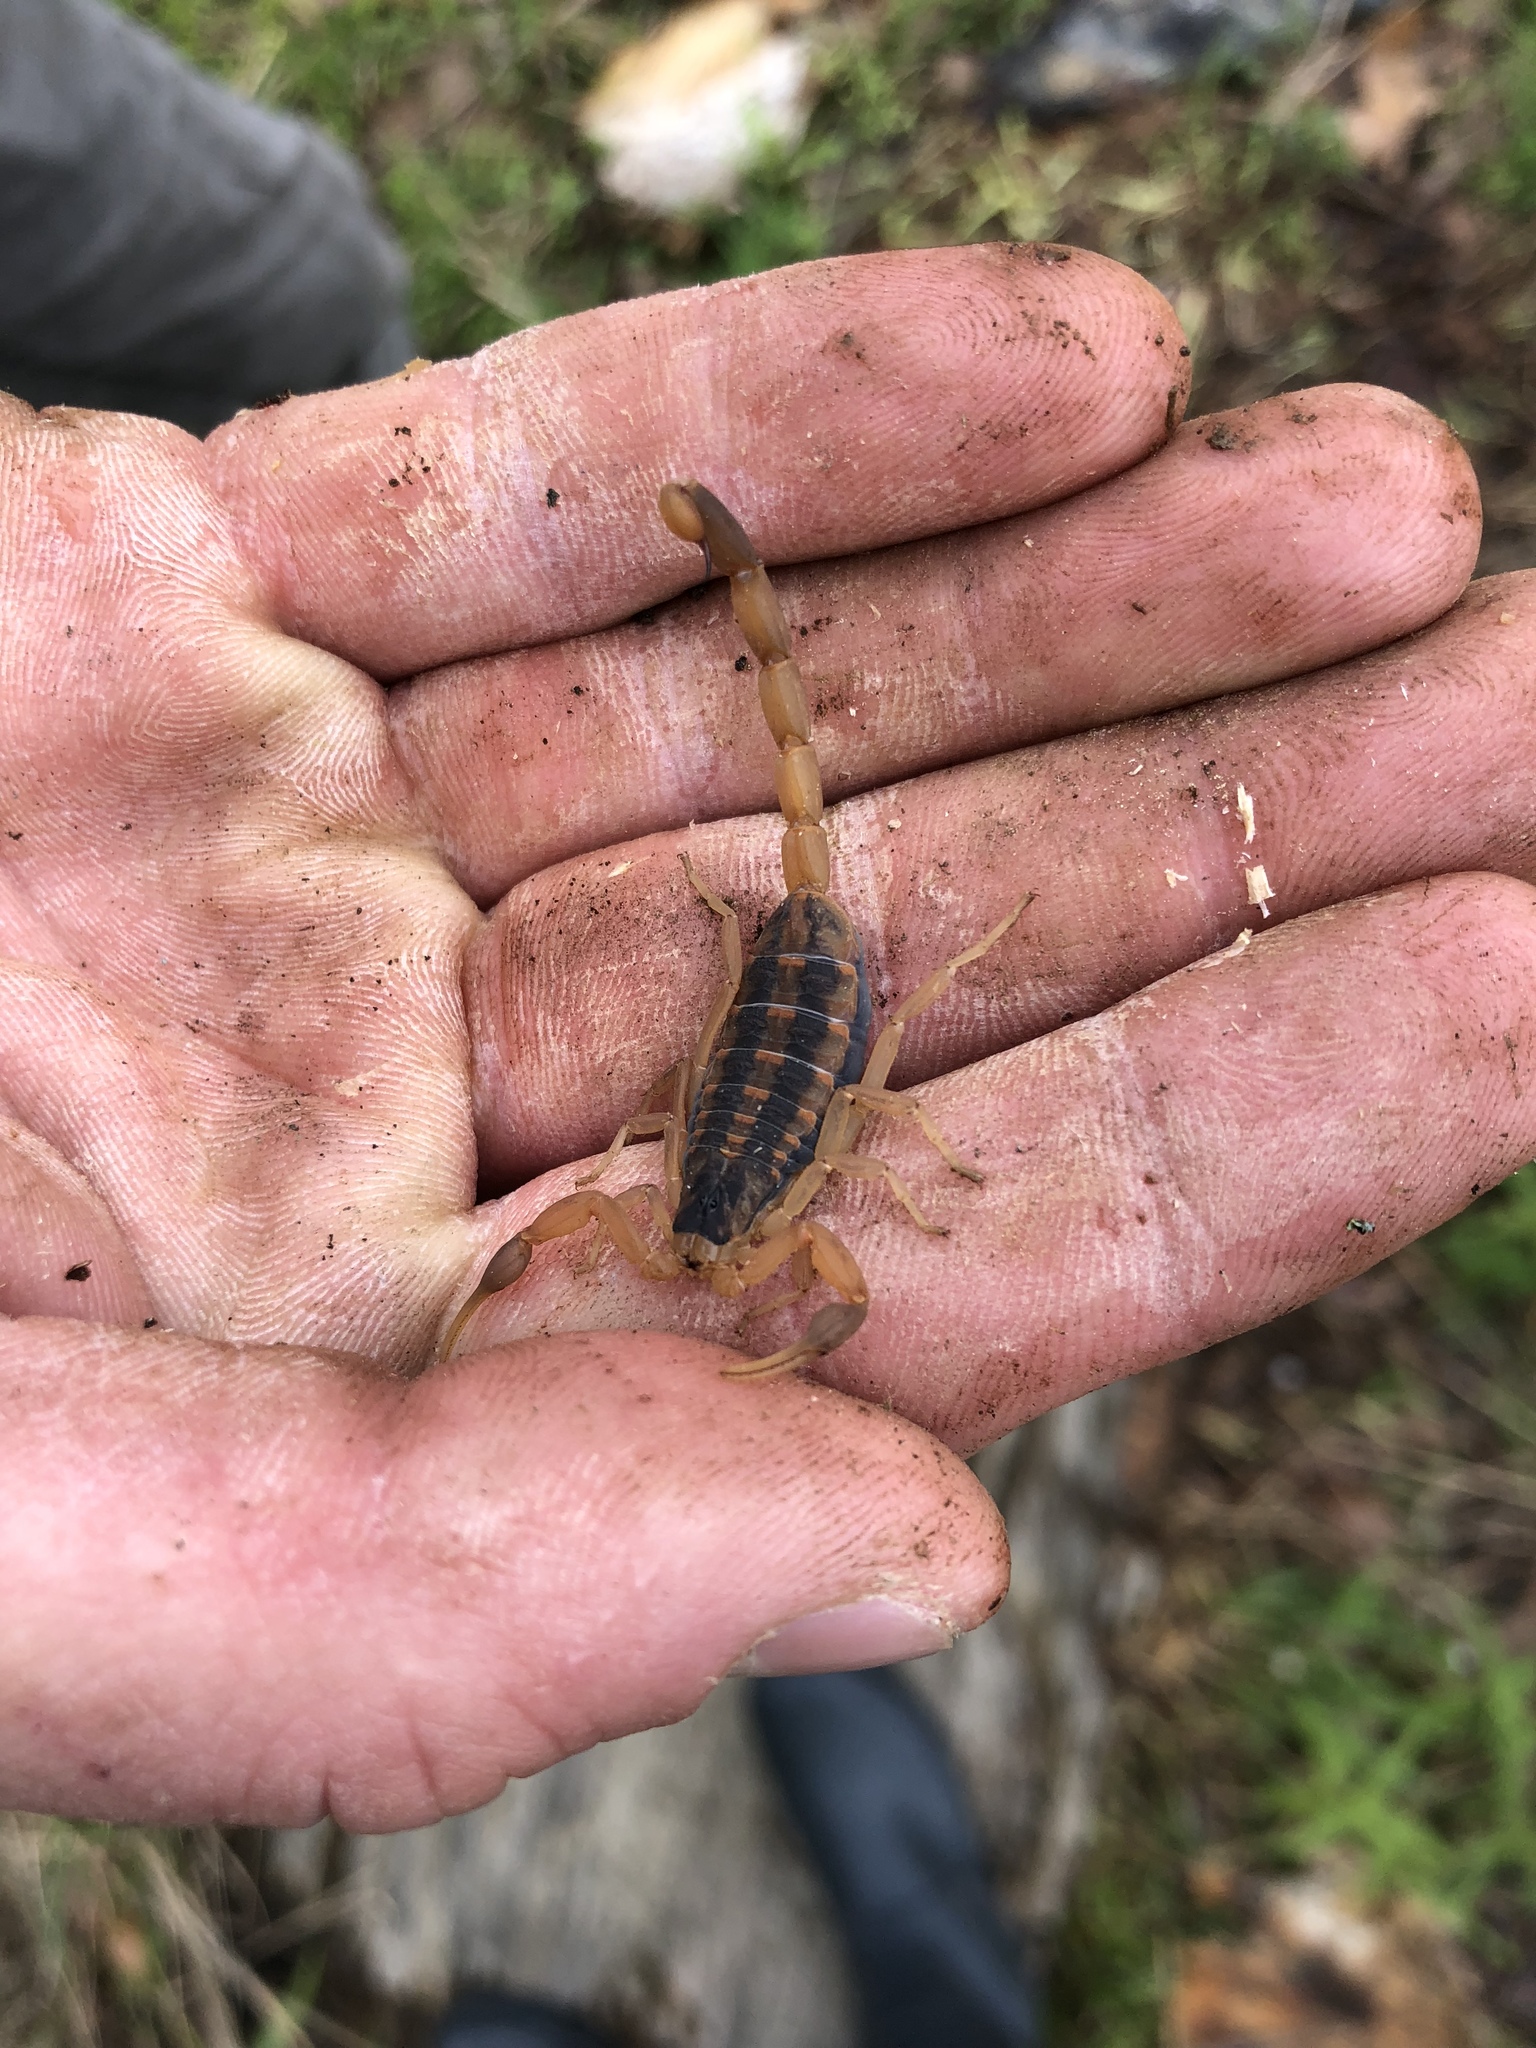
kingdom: Animalia
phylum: Arthropoda
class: Arachnida
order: Scorpiones
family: Buthidae
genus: Centruroides
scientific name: Centruroides vittatus
